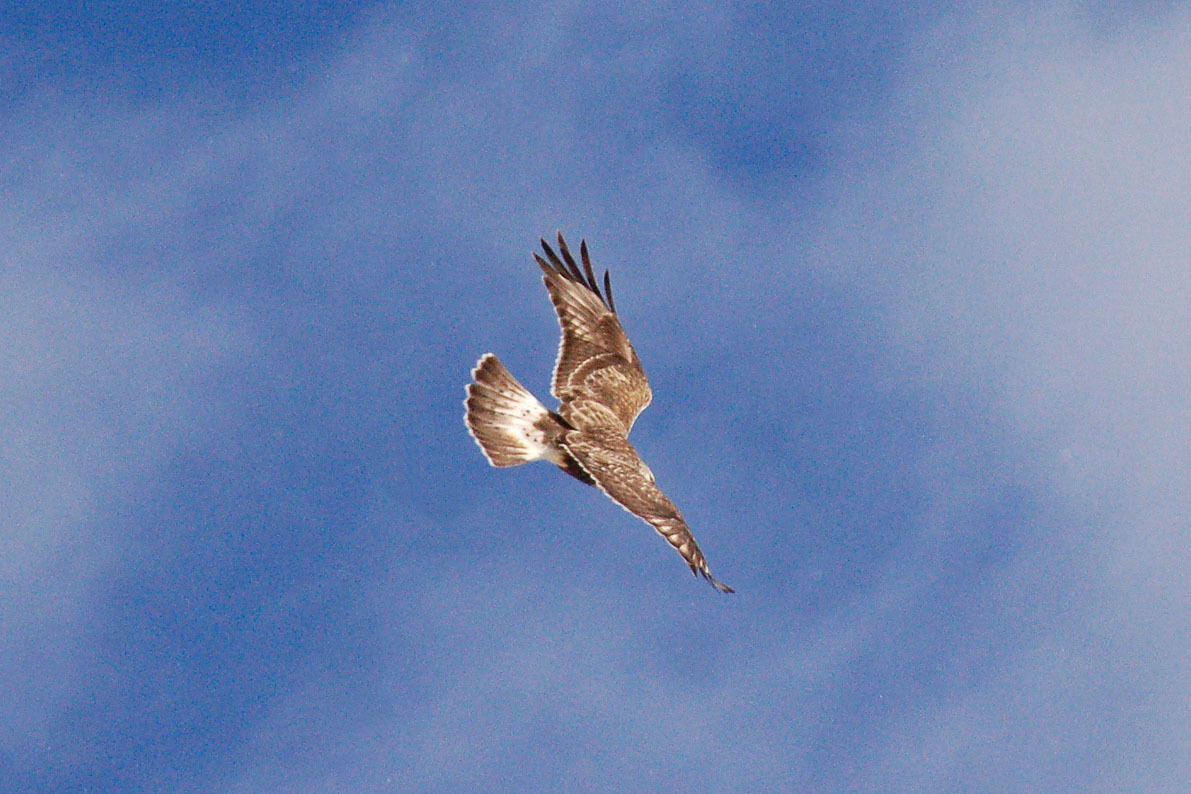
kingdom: Animalia
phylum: Chordata
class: Aves
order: Accipitriformes
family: Accipitridae
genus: Buteo
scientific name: Buteo lagopus
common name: Rough-legged buzzard
